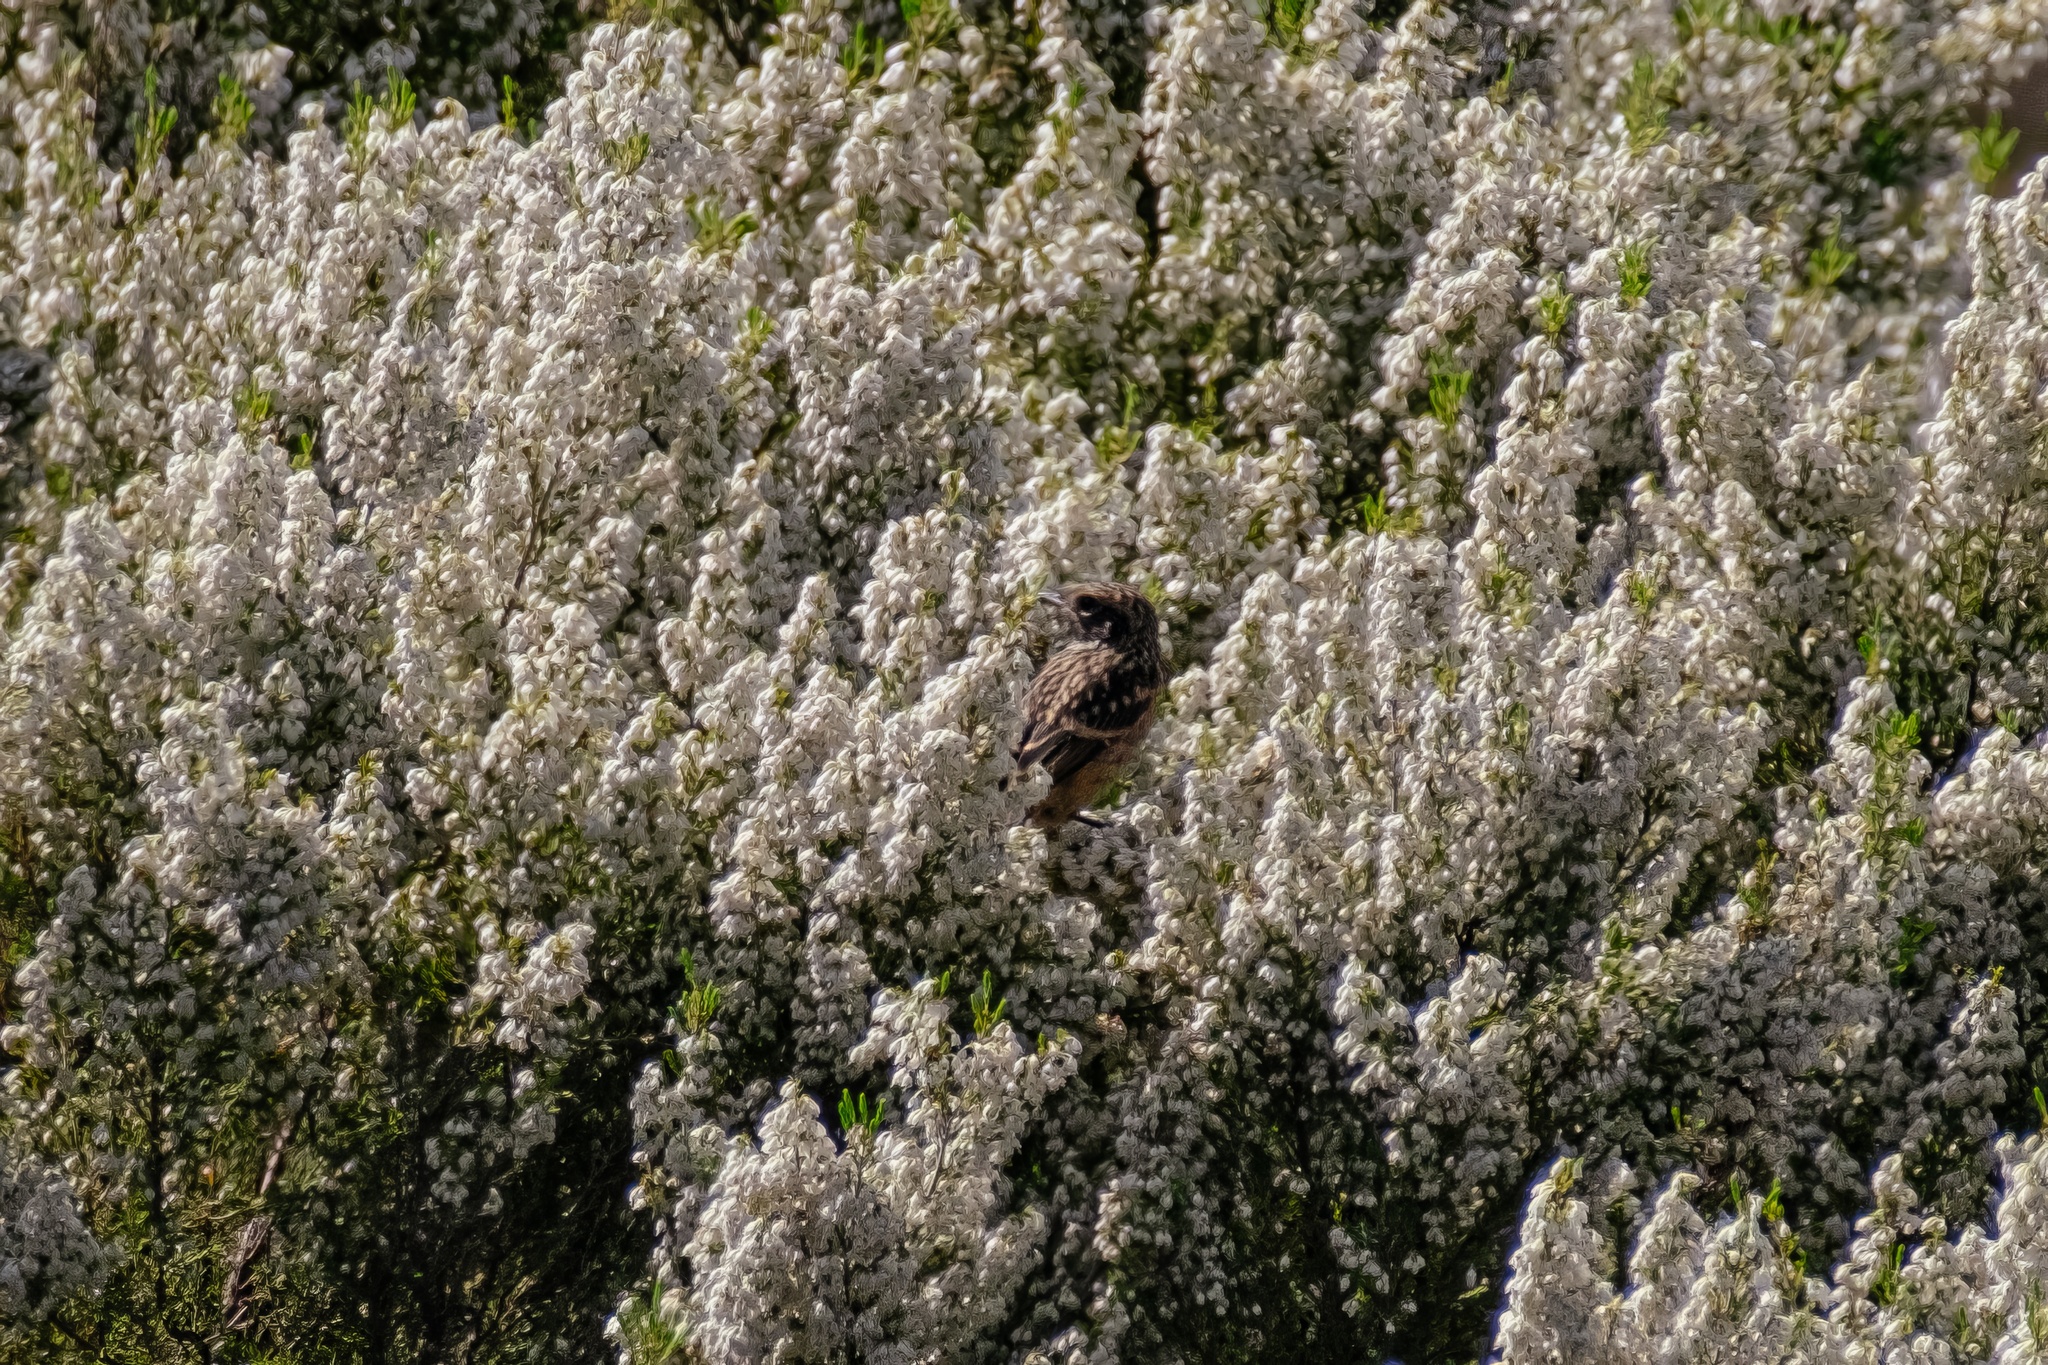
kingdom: Animalia
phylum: Chordata
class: Aves
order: Passeriformes
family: Muscicapidae
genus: Saxicola
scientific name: Saxicola rubicola
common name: European stonechat
